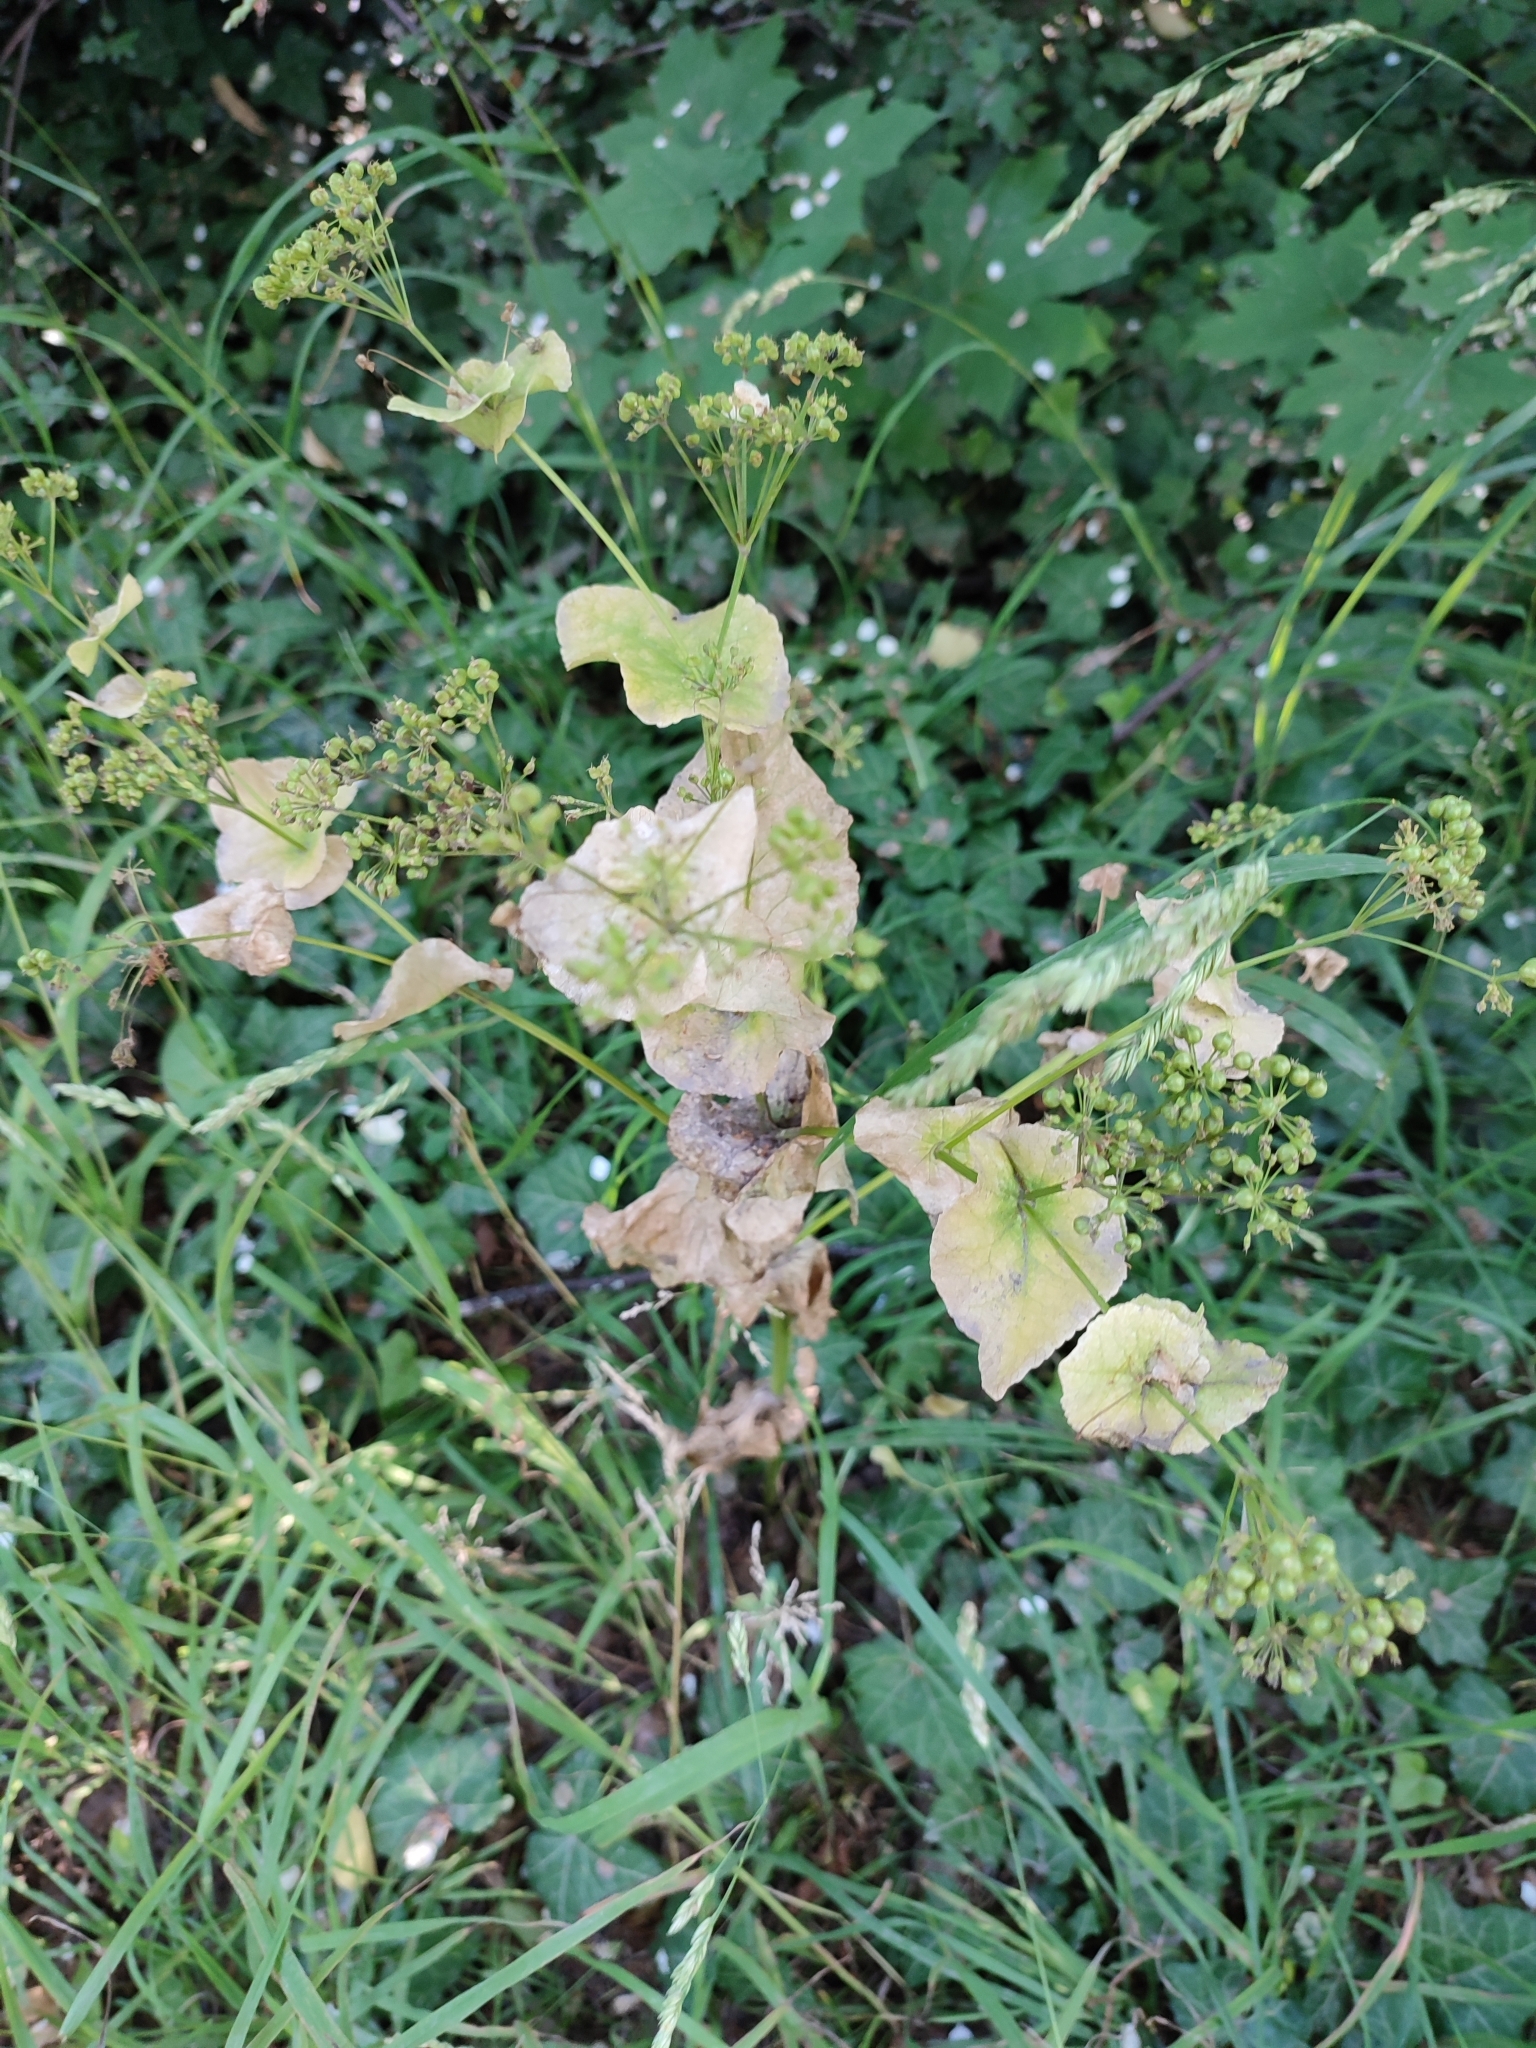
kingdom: Plantae
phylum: Tracheophyta
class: Magnoliopsida
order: Apiales
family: Apiaceae
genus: Smyrnium
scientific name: Smyrnium perfoliatum
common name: Perfoliate alexanders
